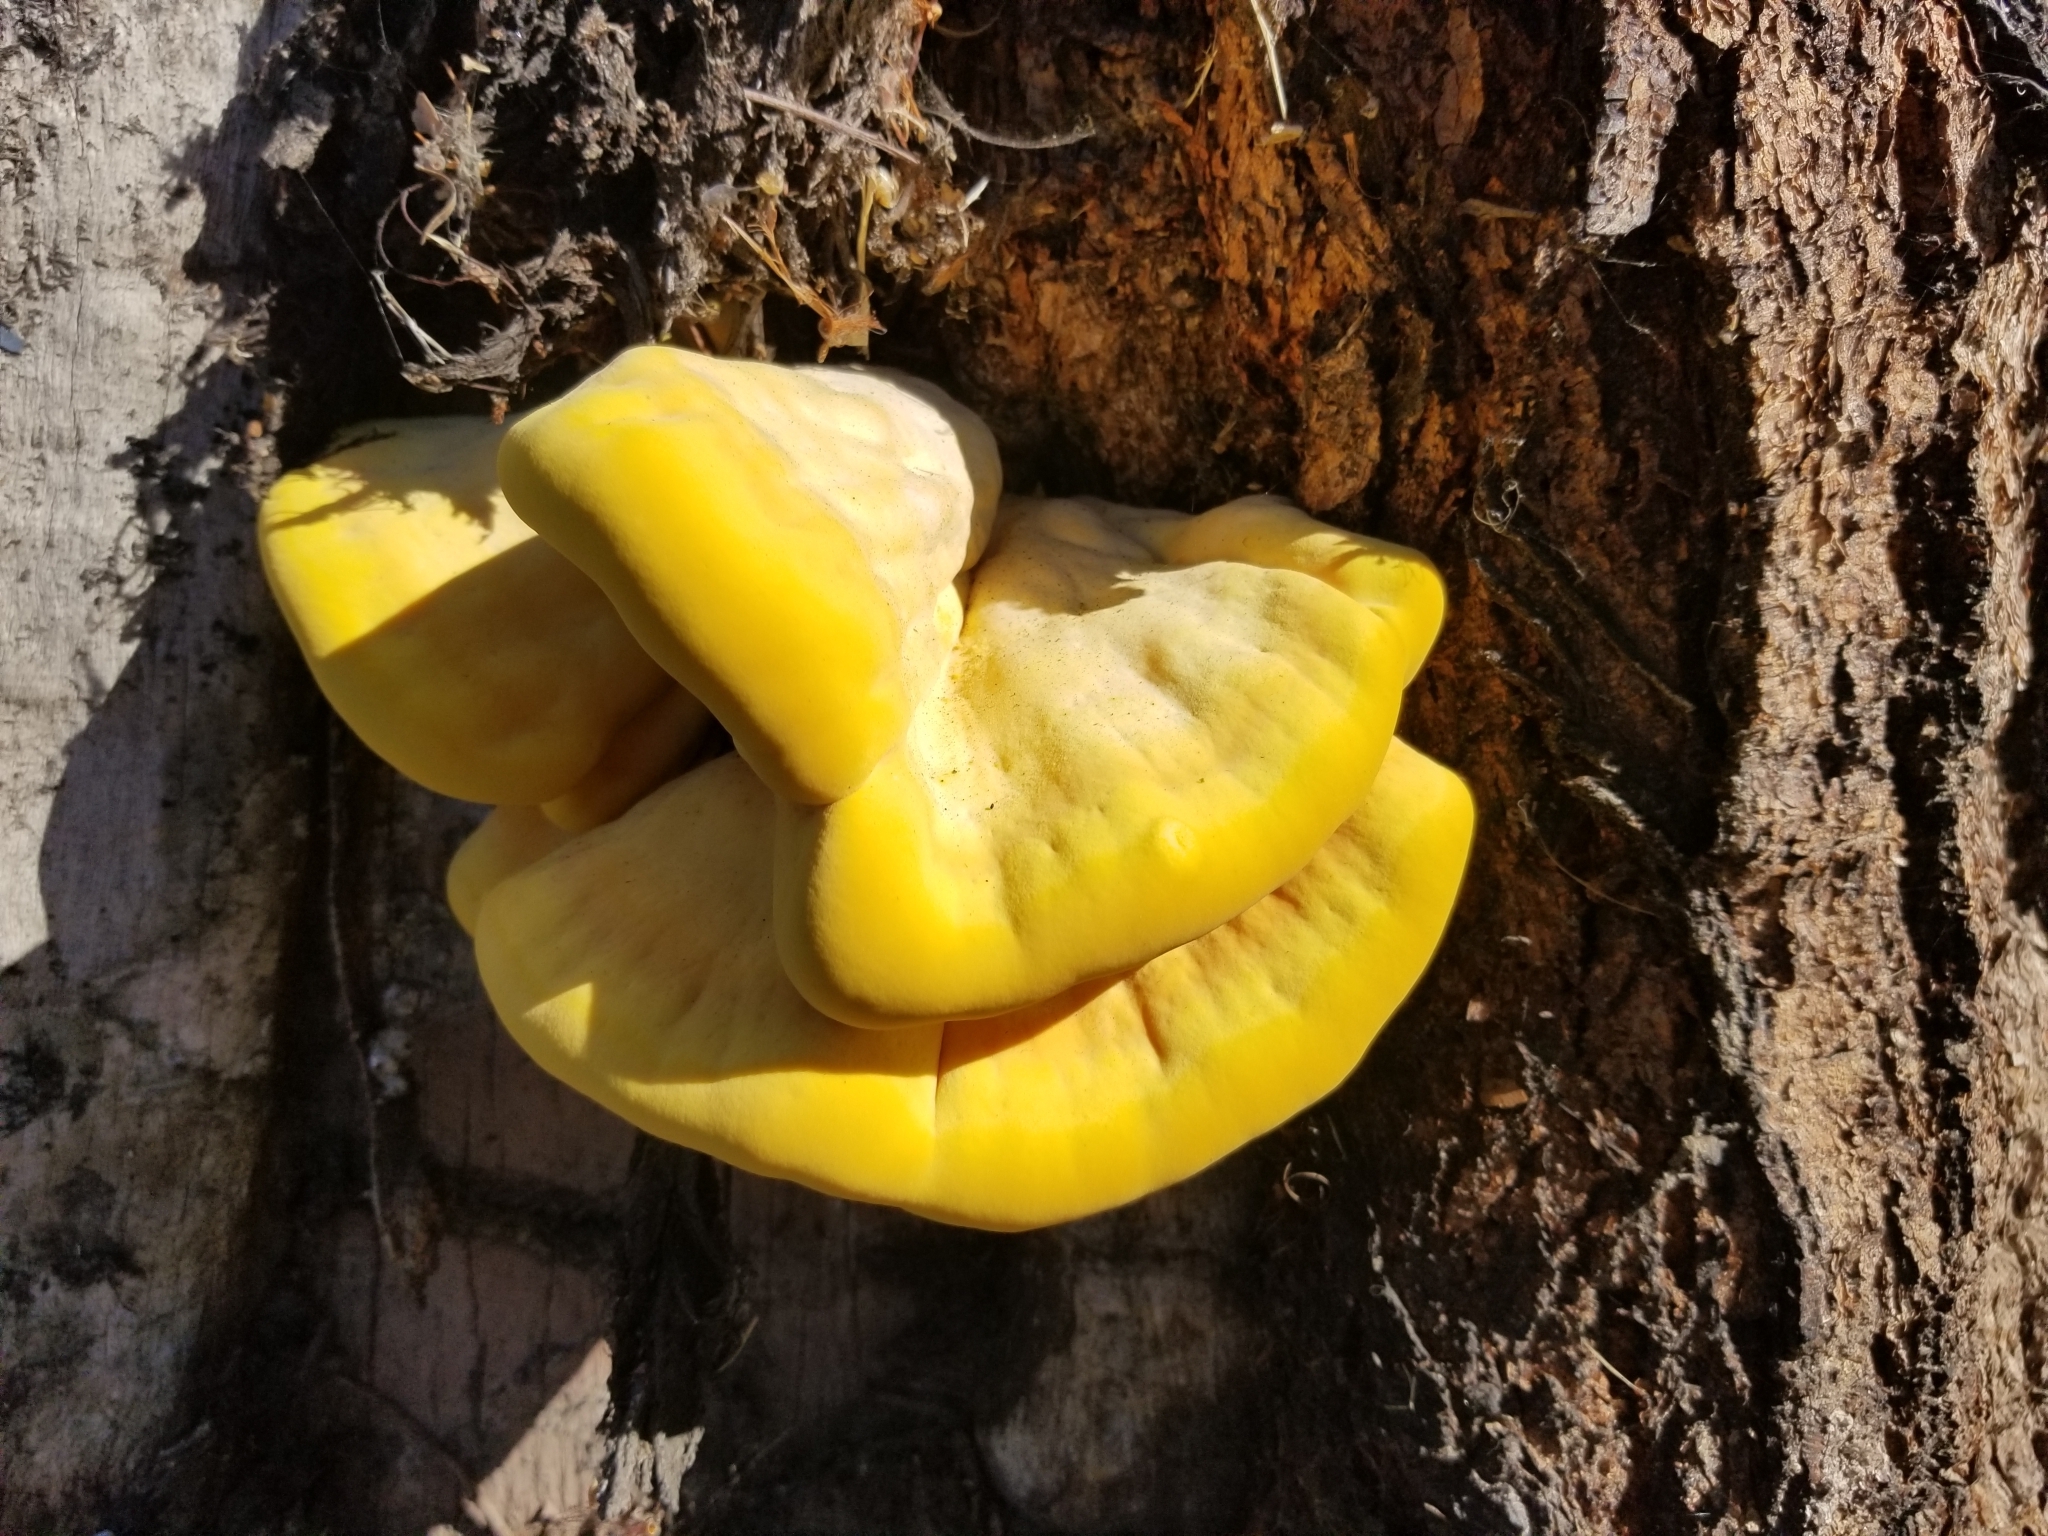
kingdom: Fungi
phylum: Basidiomycota
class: Agaricomycetes
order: Polyporales
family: Laetiporaceae
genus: Laetiporus
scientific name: Laetiporus gilbertsonii
